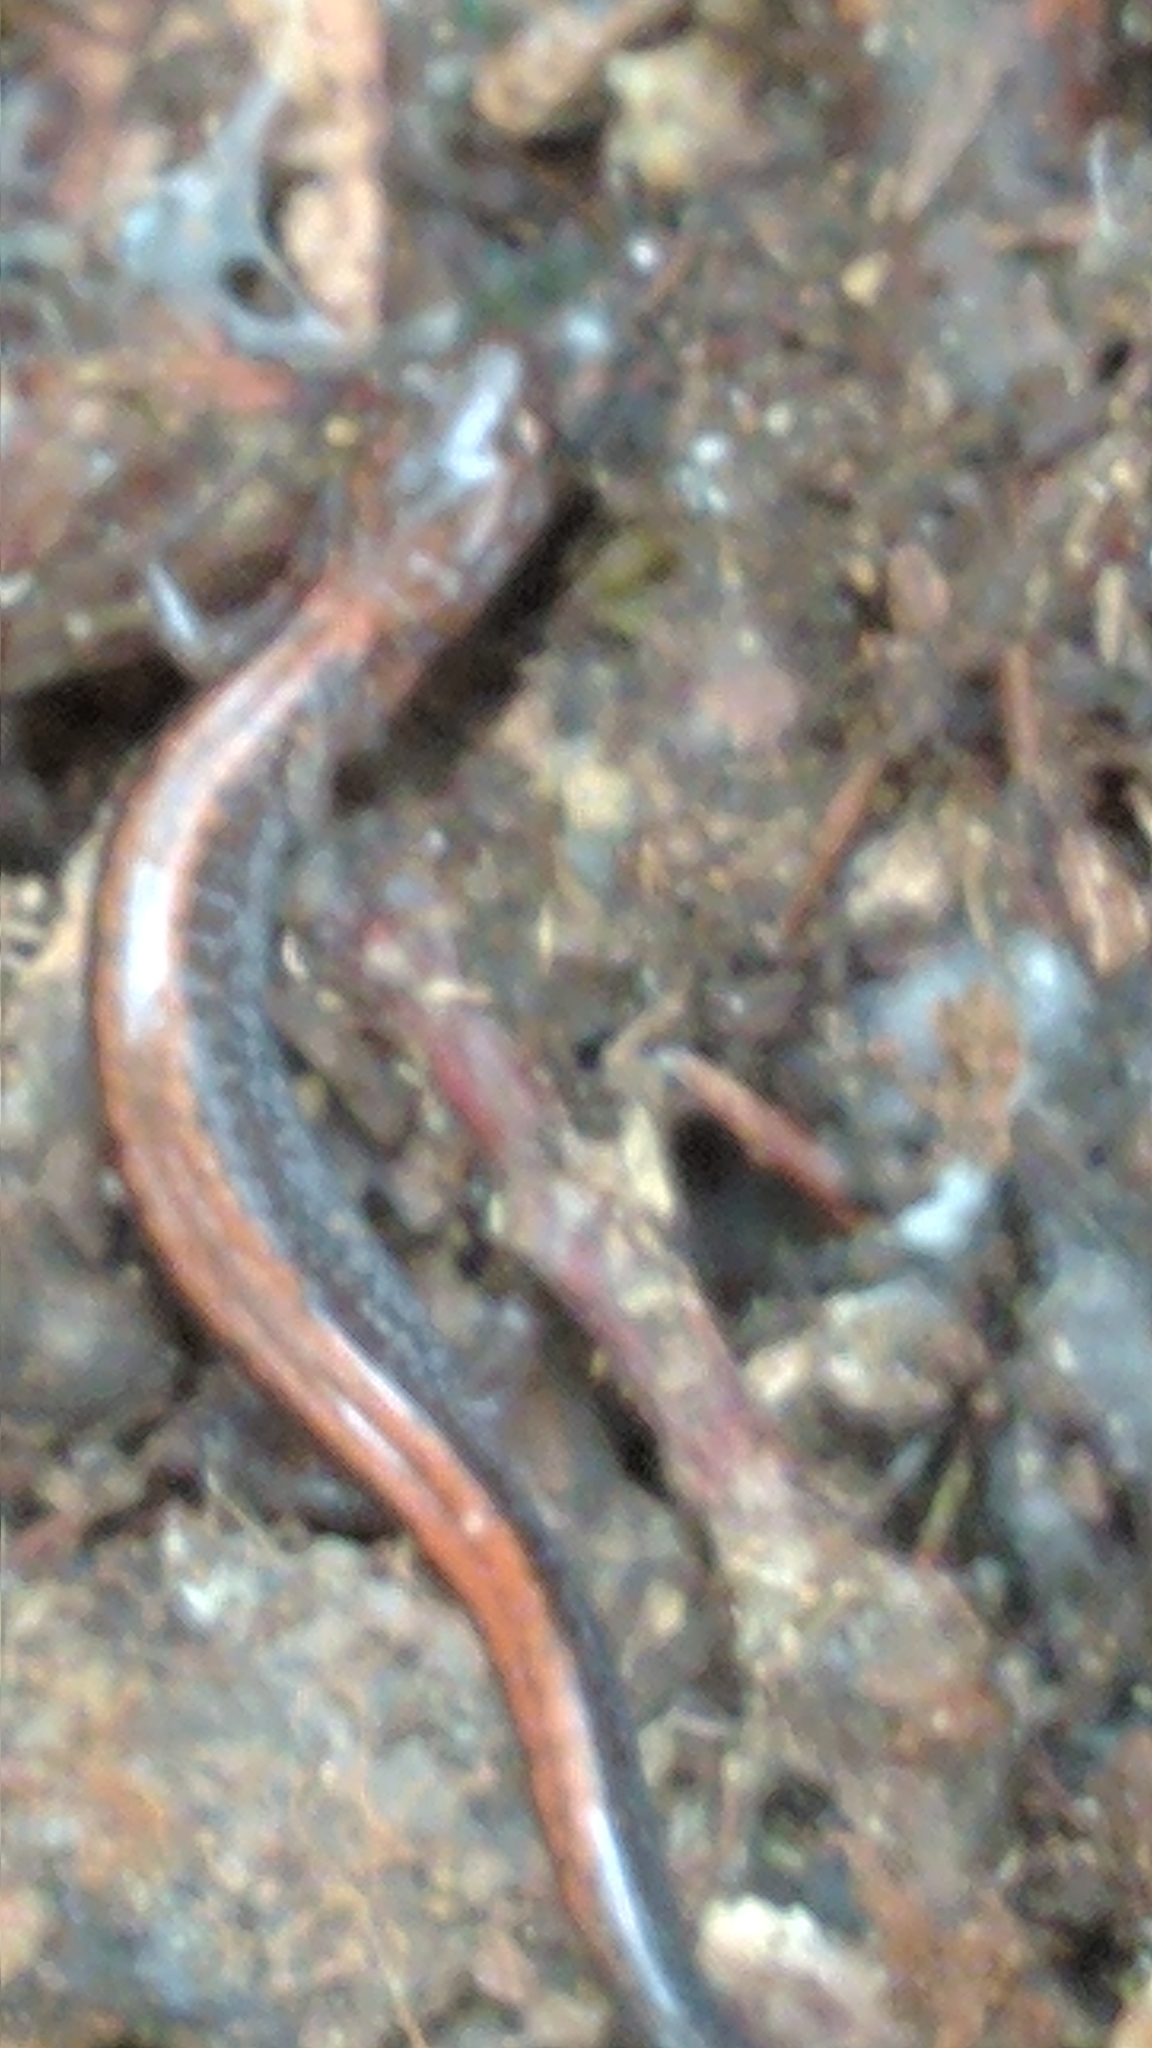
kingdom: Animalia
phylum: Chordata
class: Amphibia
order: Caudata
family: Plethodontidae
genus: Plethodon
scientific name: Plethodon cinereus
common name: Redback salamander
